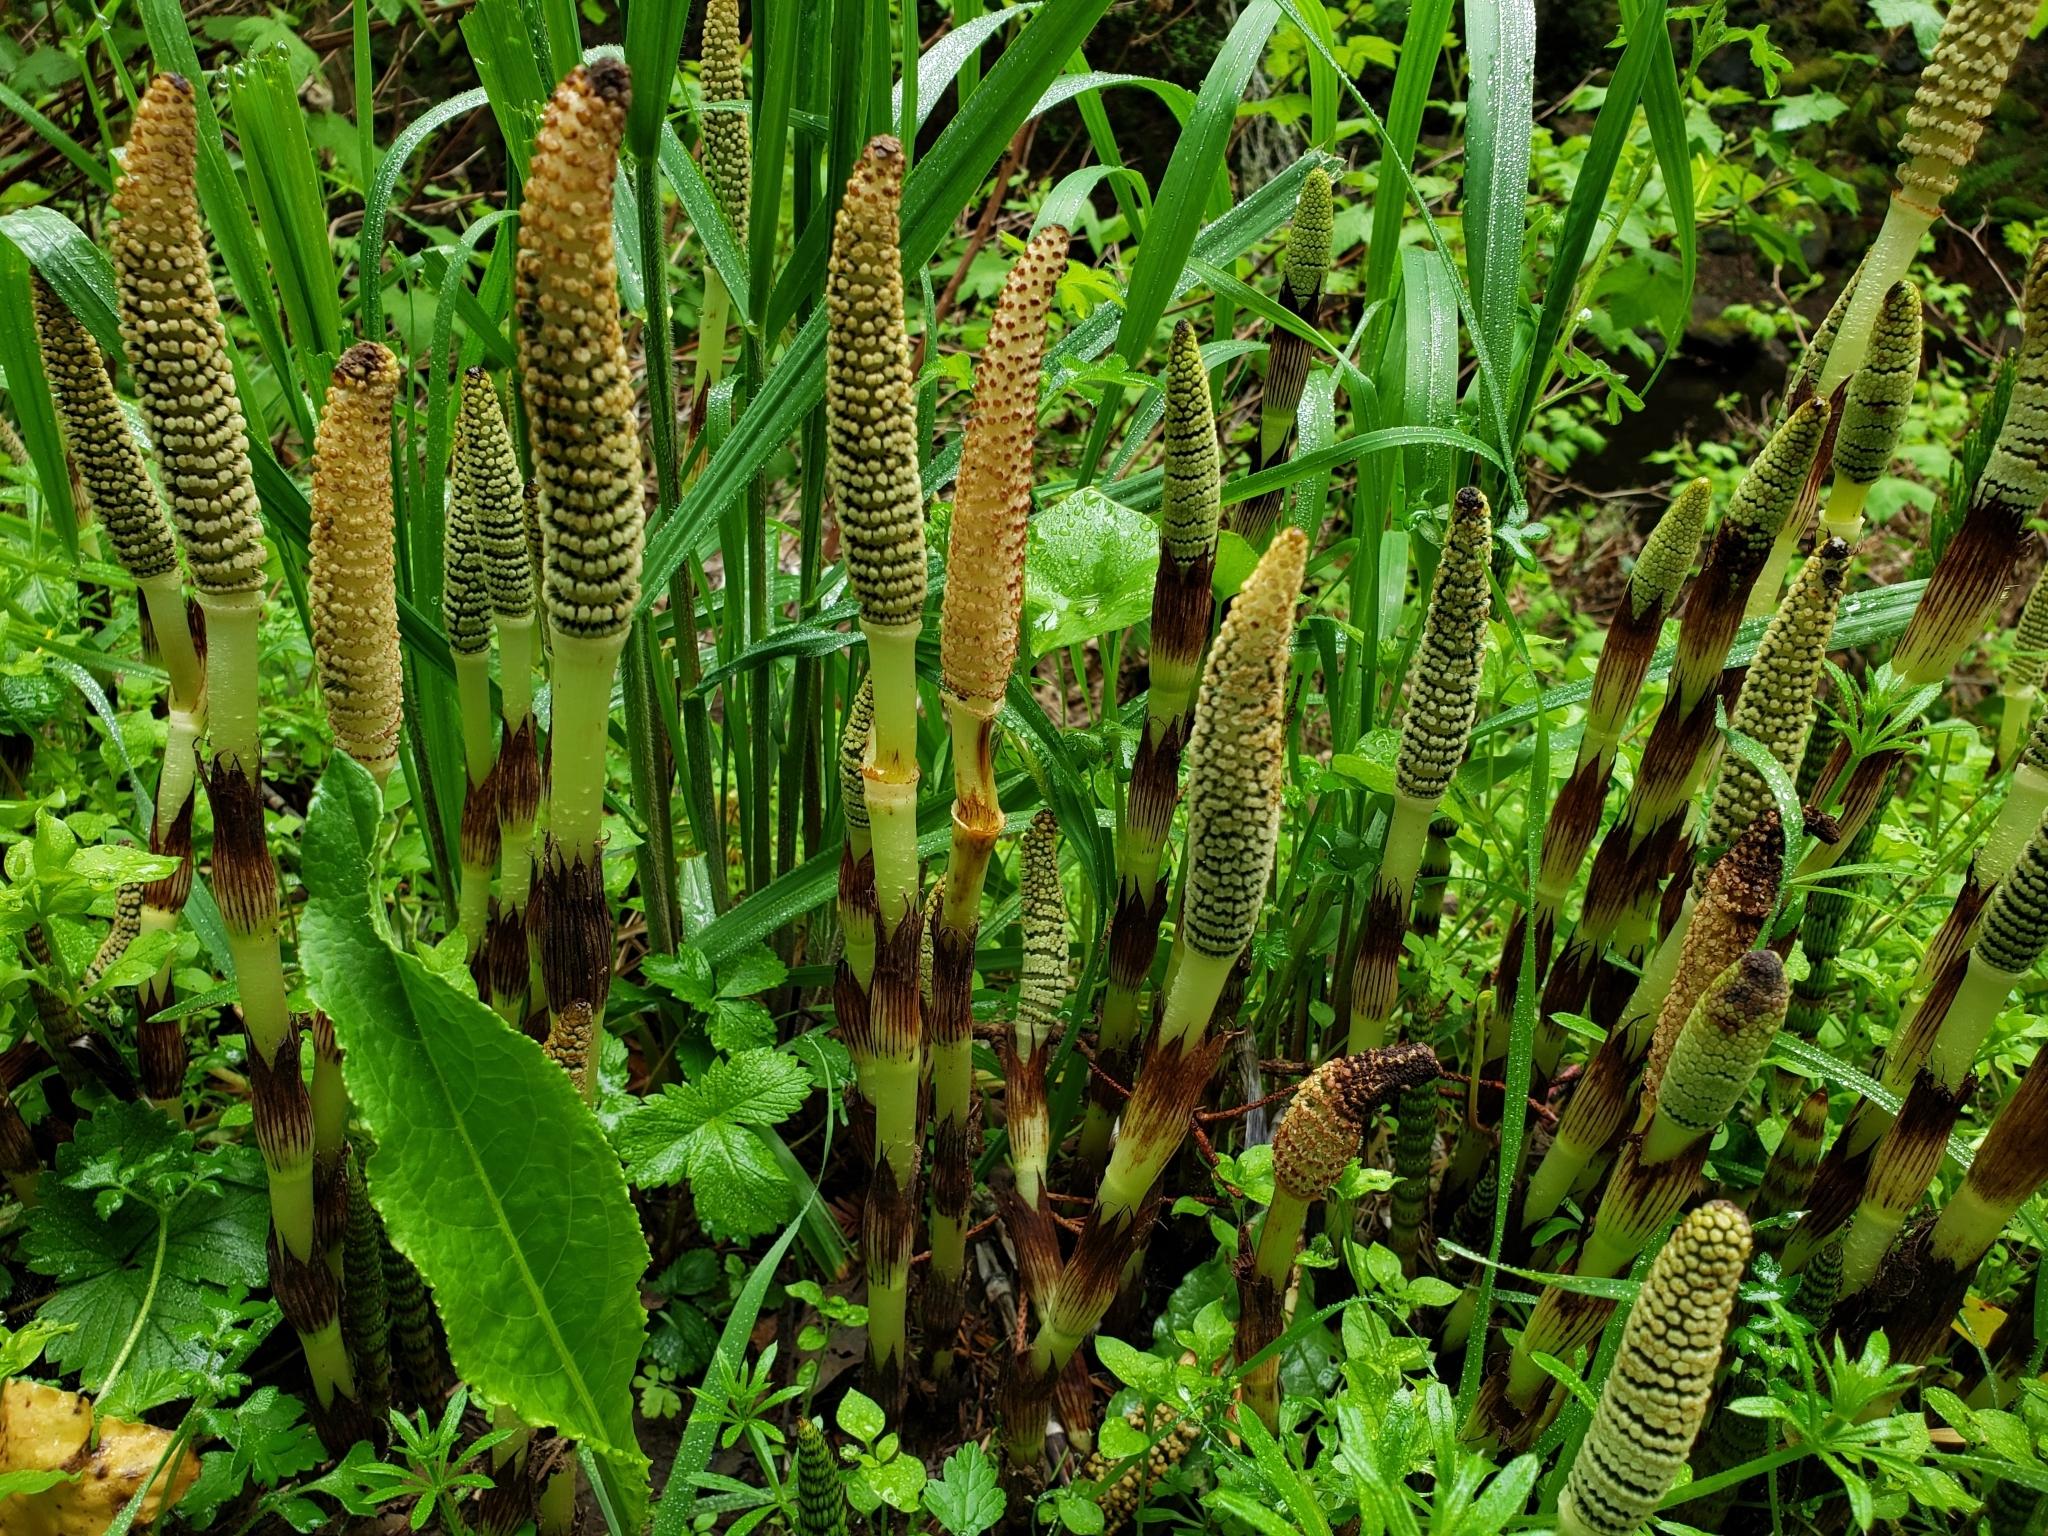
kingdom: Plantae
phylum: Tracheophyta
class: Polypodiopsida
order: Equisetales
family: Equisetaceae
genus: Equisetum
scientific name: Equisetum braunii
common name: Braun's horsetail
